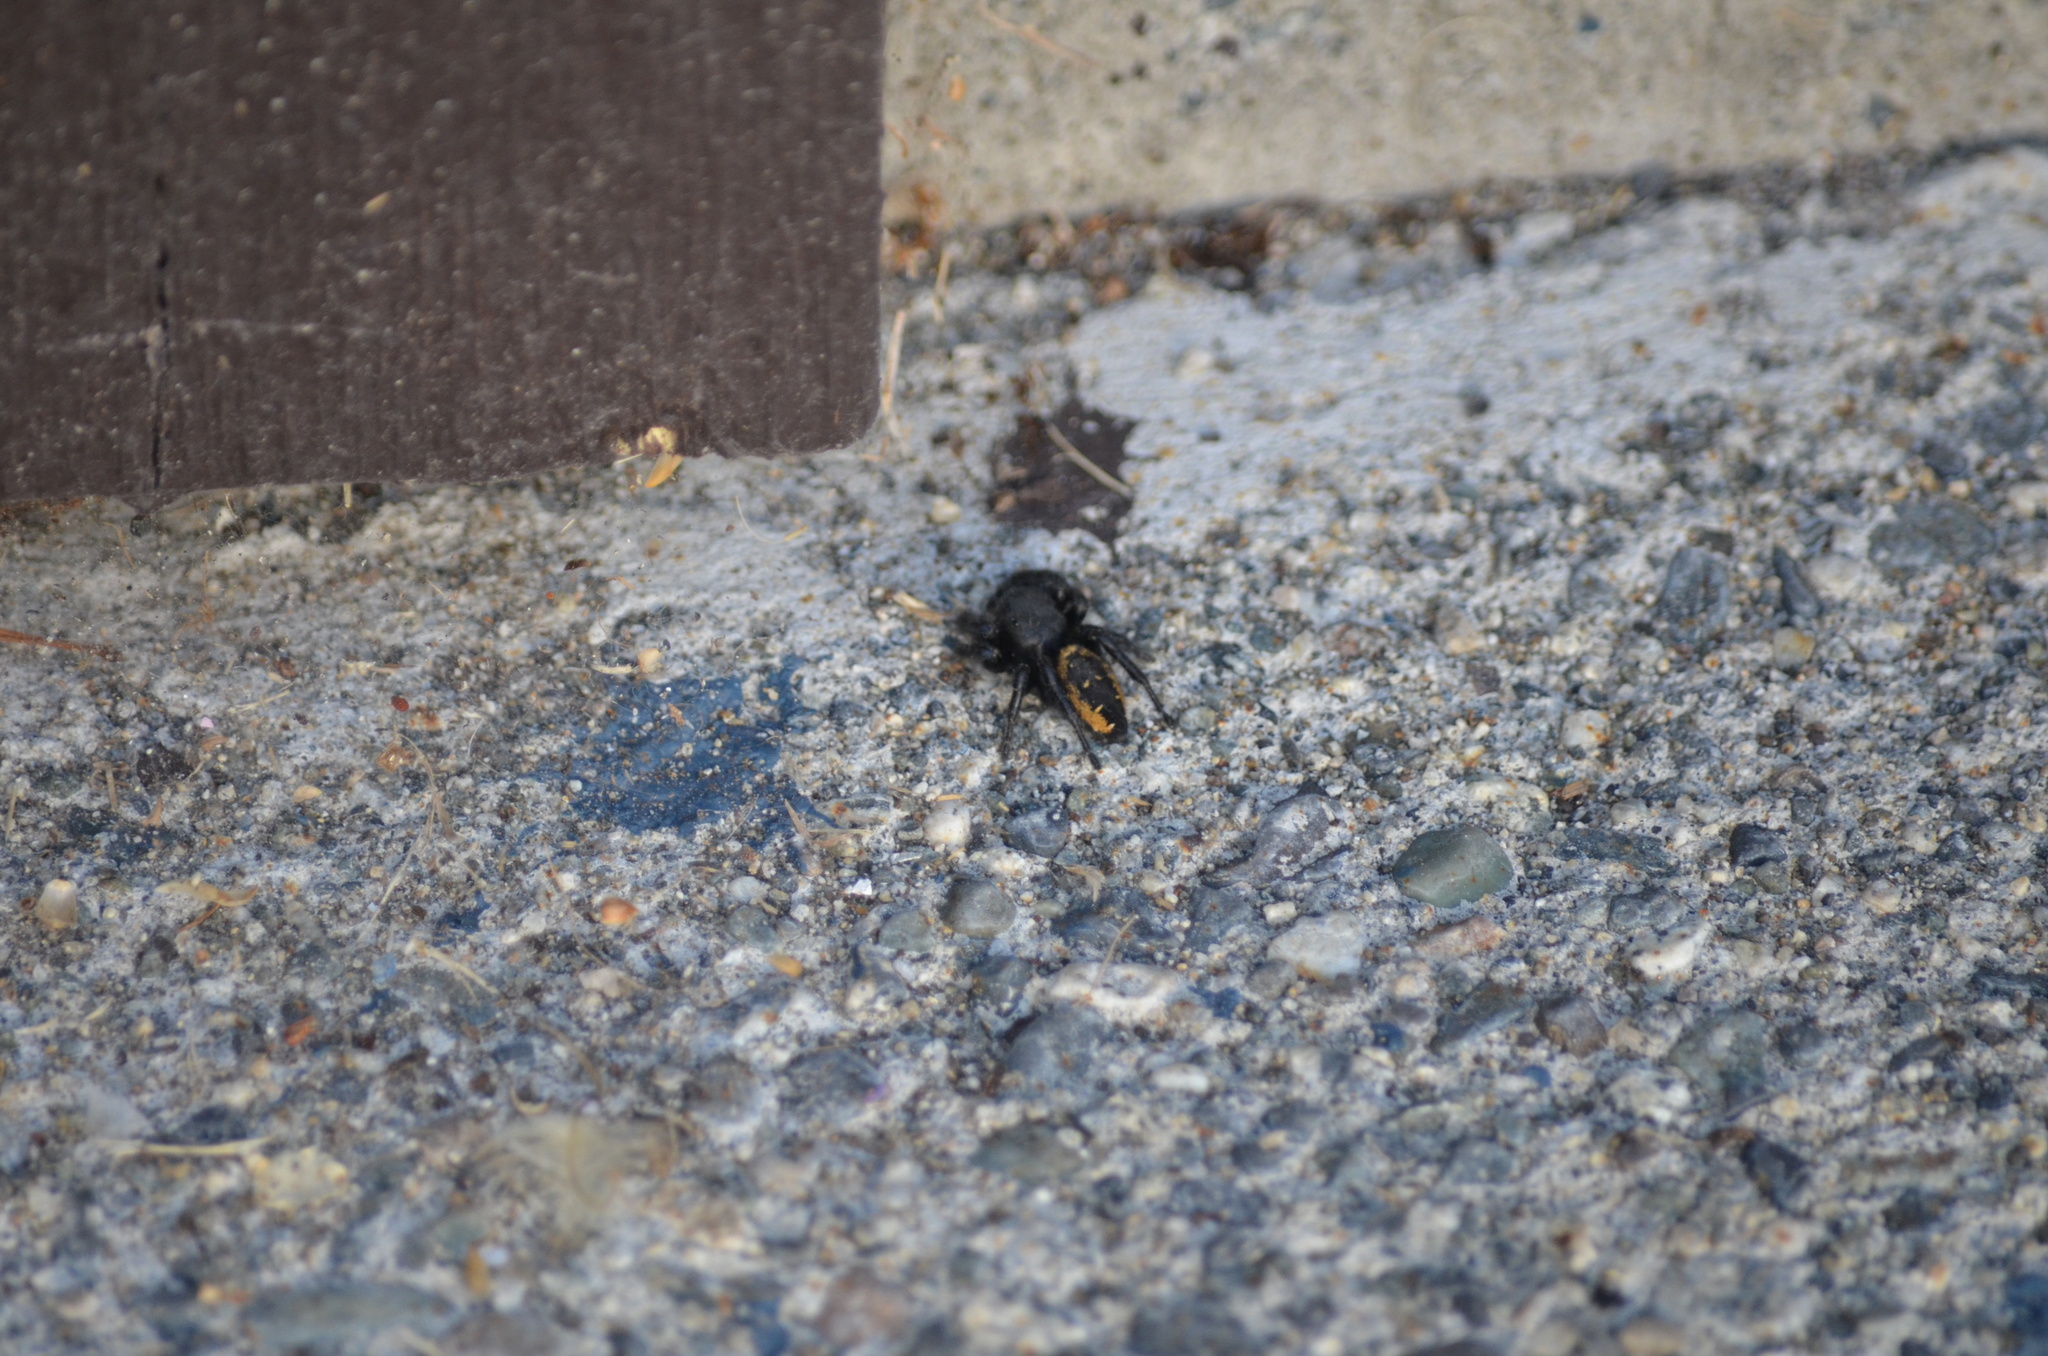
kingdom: Animalia
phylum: Arthropoda
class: Arachnida
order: Araneae
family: Salticidae
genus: Phidippus
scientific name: Phidippus johnsoni
